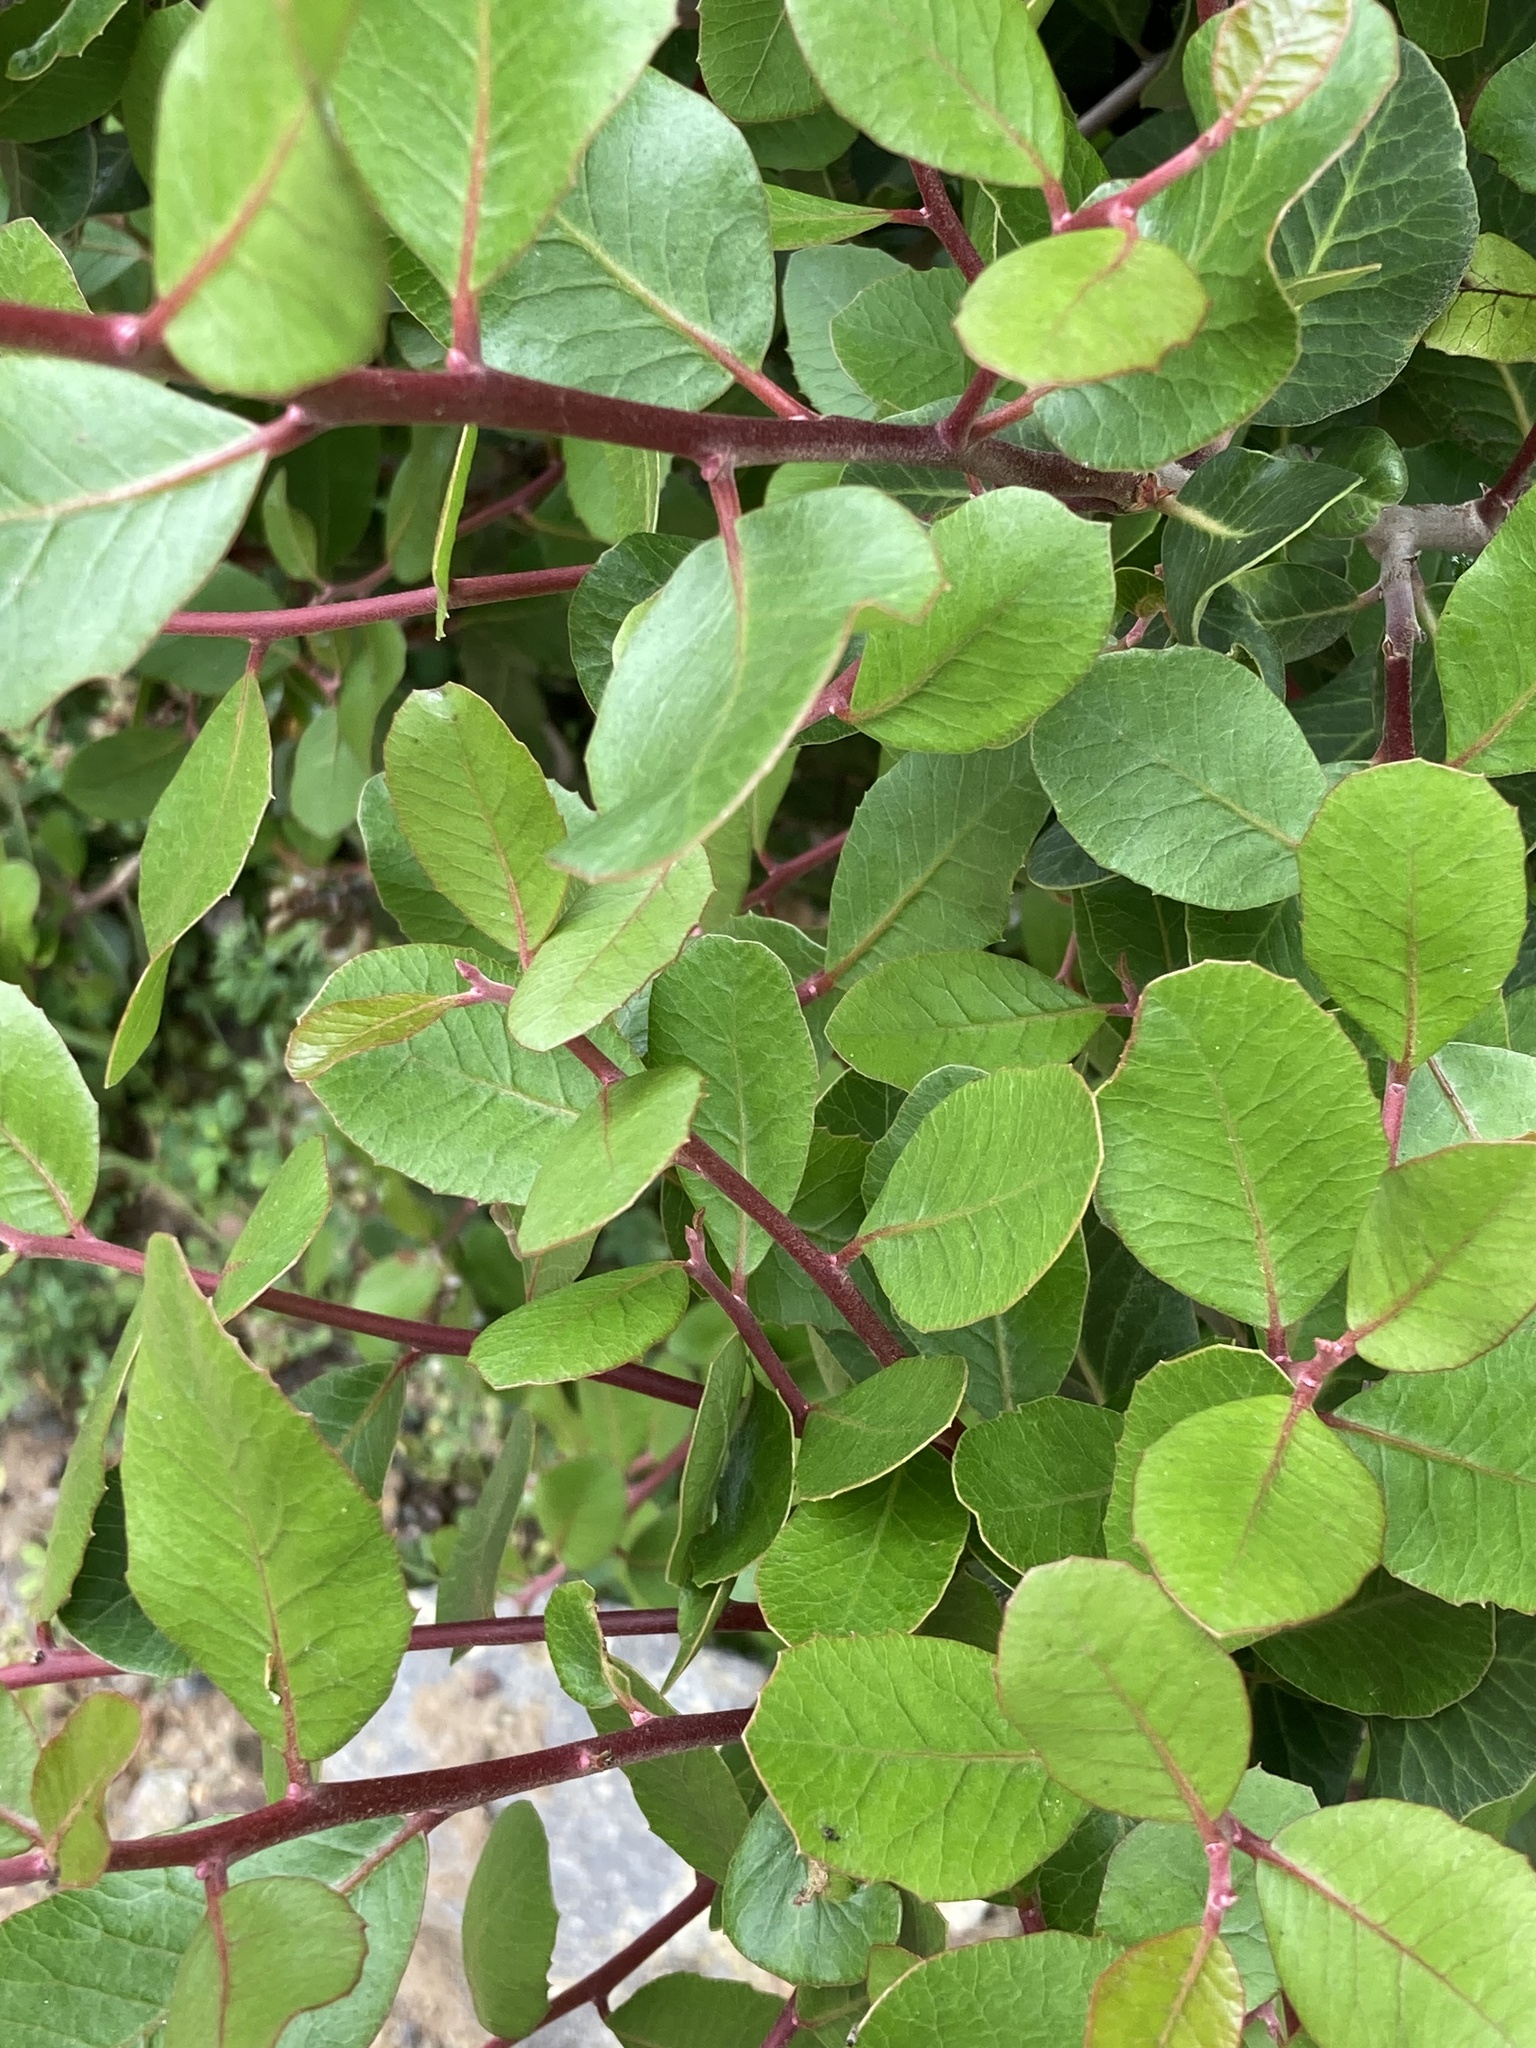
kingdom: Plantae
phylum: Tracheophyta
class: Magnoliopsida
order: Sapindales
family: Anacardiaceae
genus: Rhus
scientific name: Rhus integrifolia
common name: Lemonade sumac
